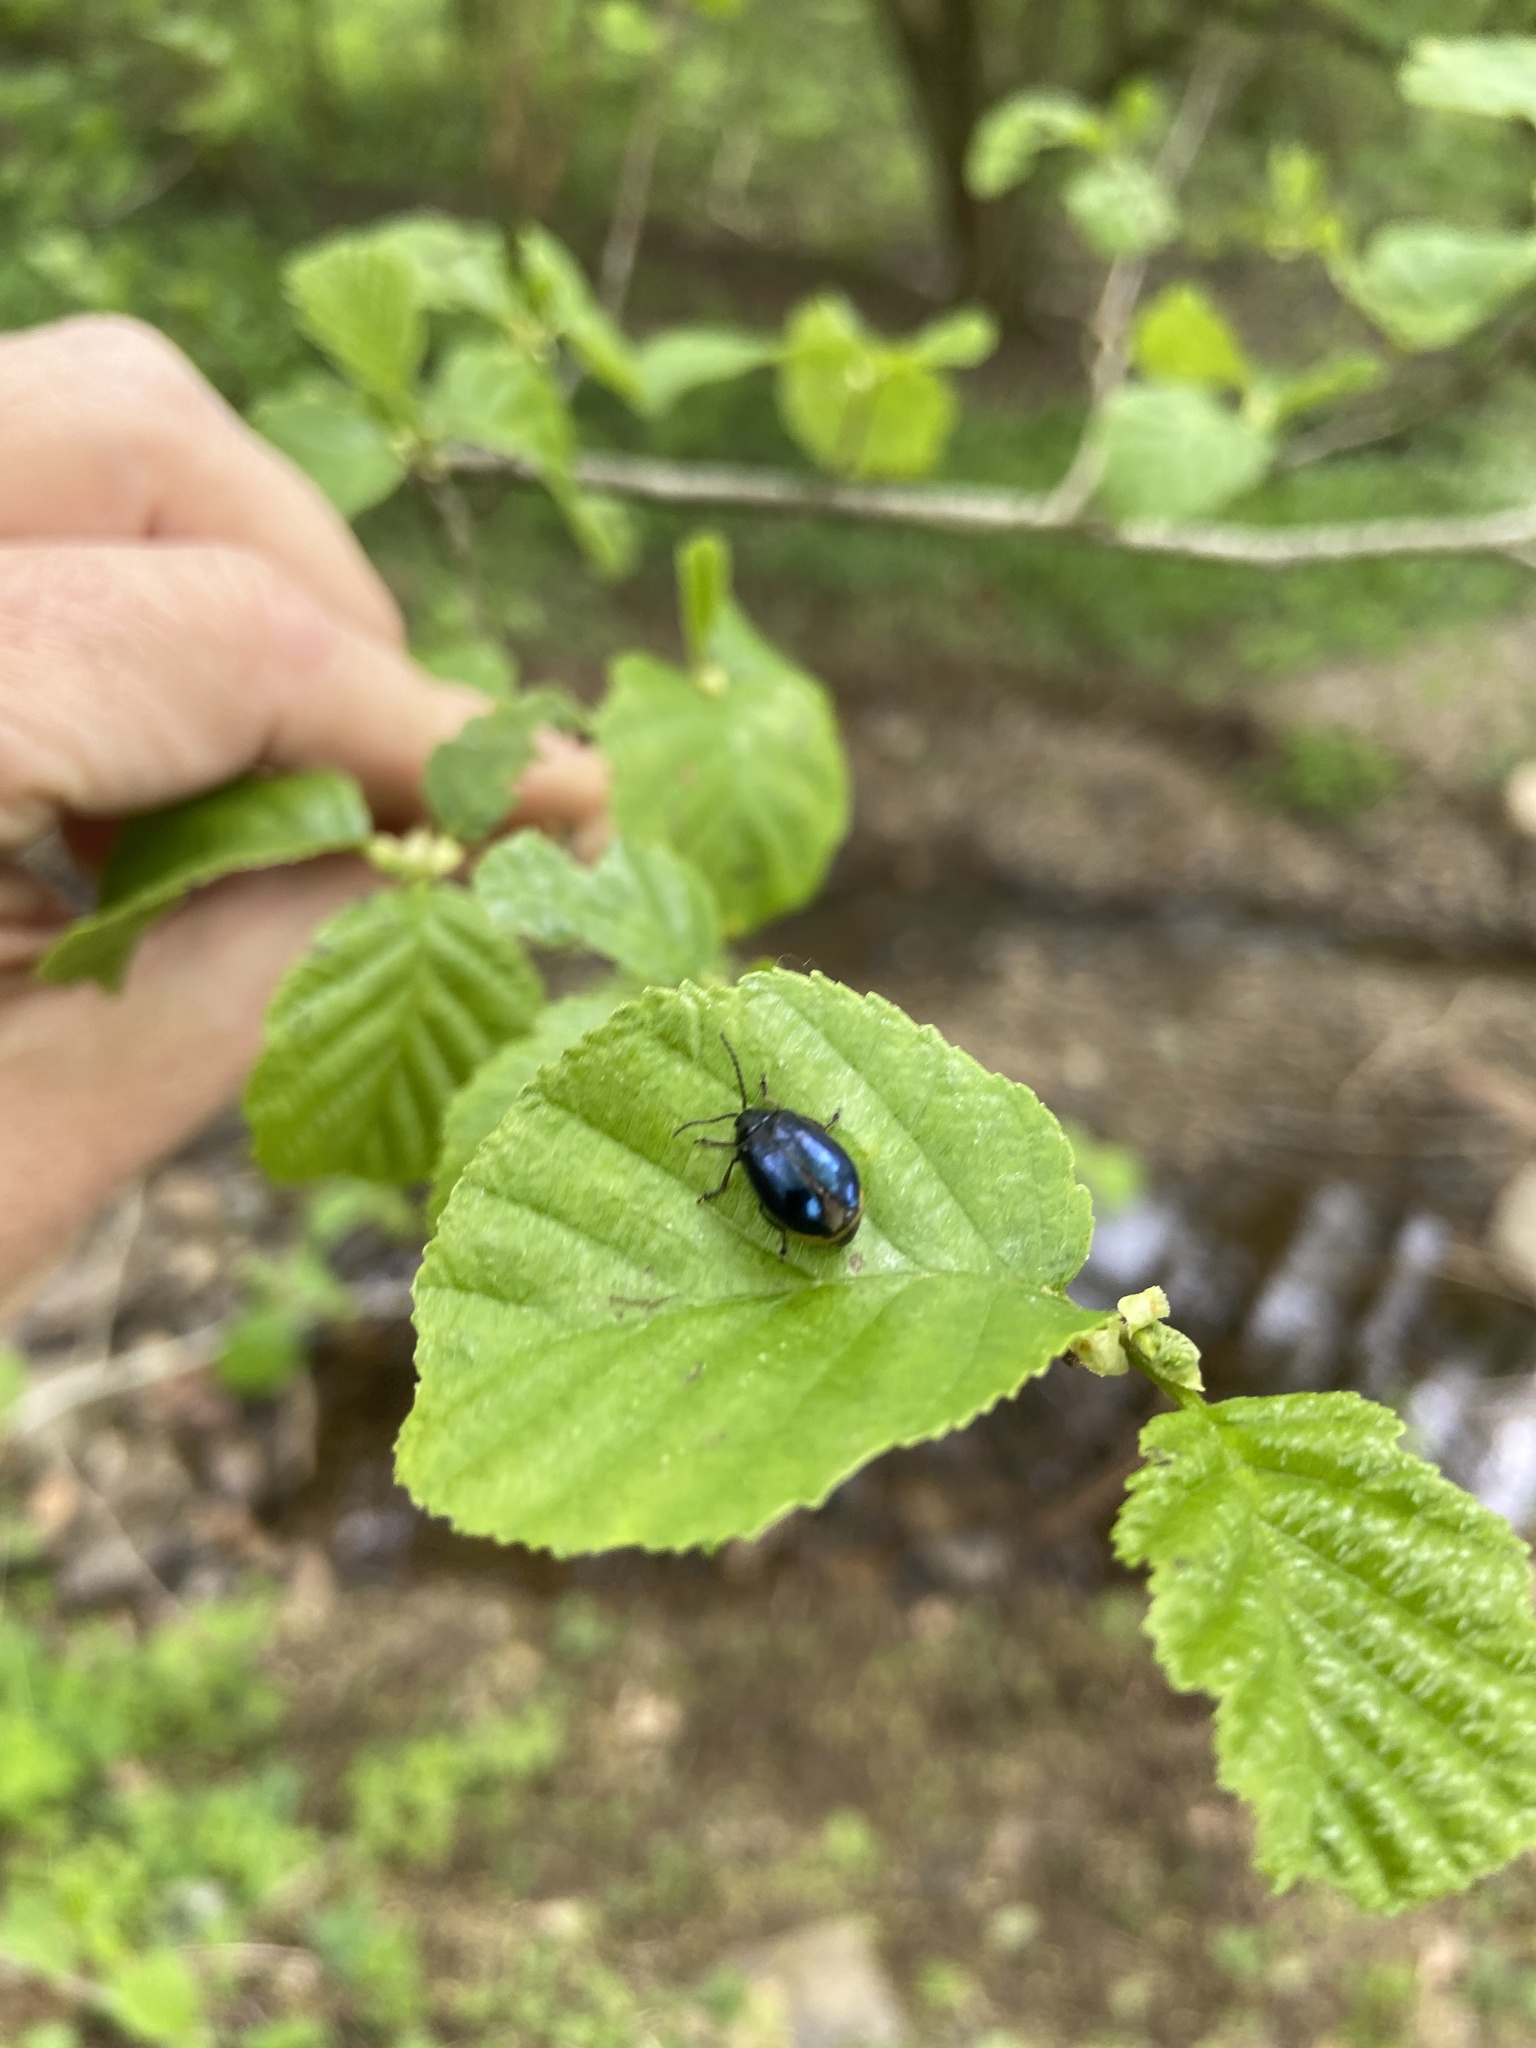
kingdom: Animalia
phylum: Arthropoda
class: Insecta
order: Coleoptera
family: Chrysomelidae
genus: Agelastica
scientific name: Agelastica alni
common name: Alder leaf beetle
